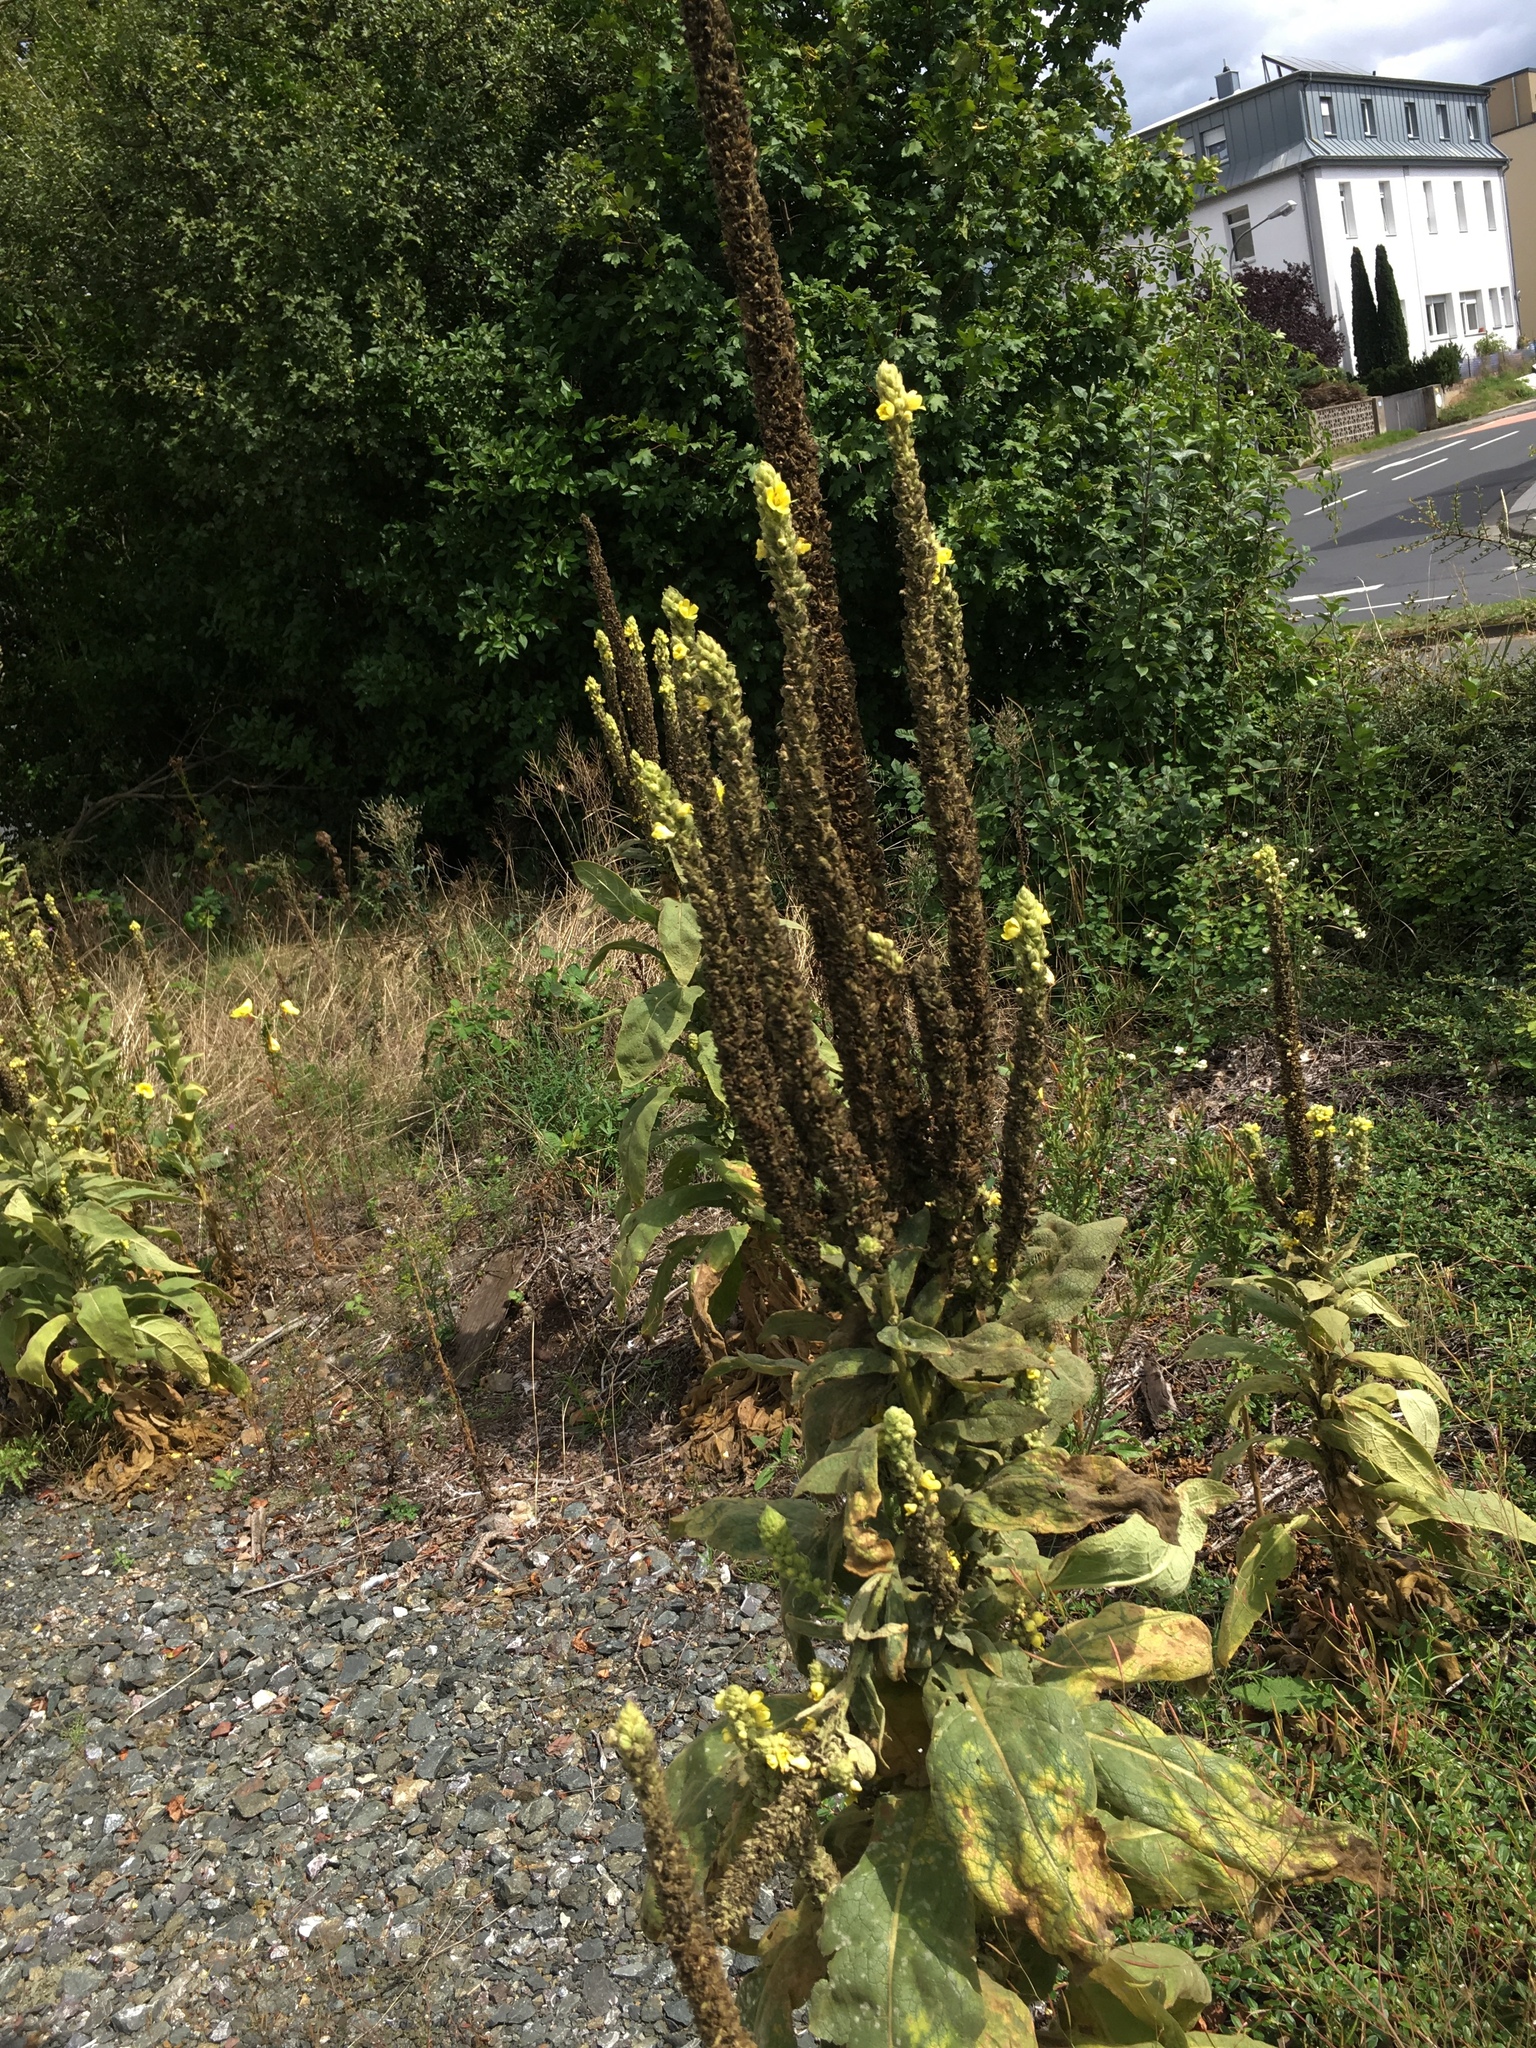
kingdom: Plantae
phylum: Tracheophyta
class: Magnoliopsida
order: Lamiales
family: Scrophulariaceae
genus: Verbascum
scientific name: Verbascum thapsus
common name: Common mullein
